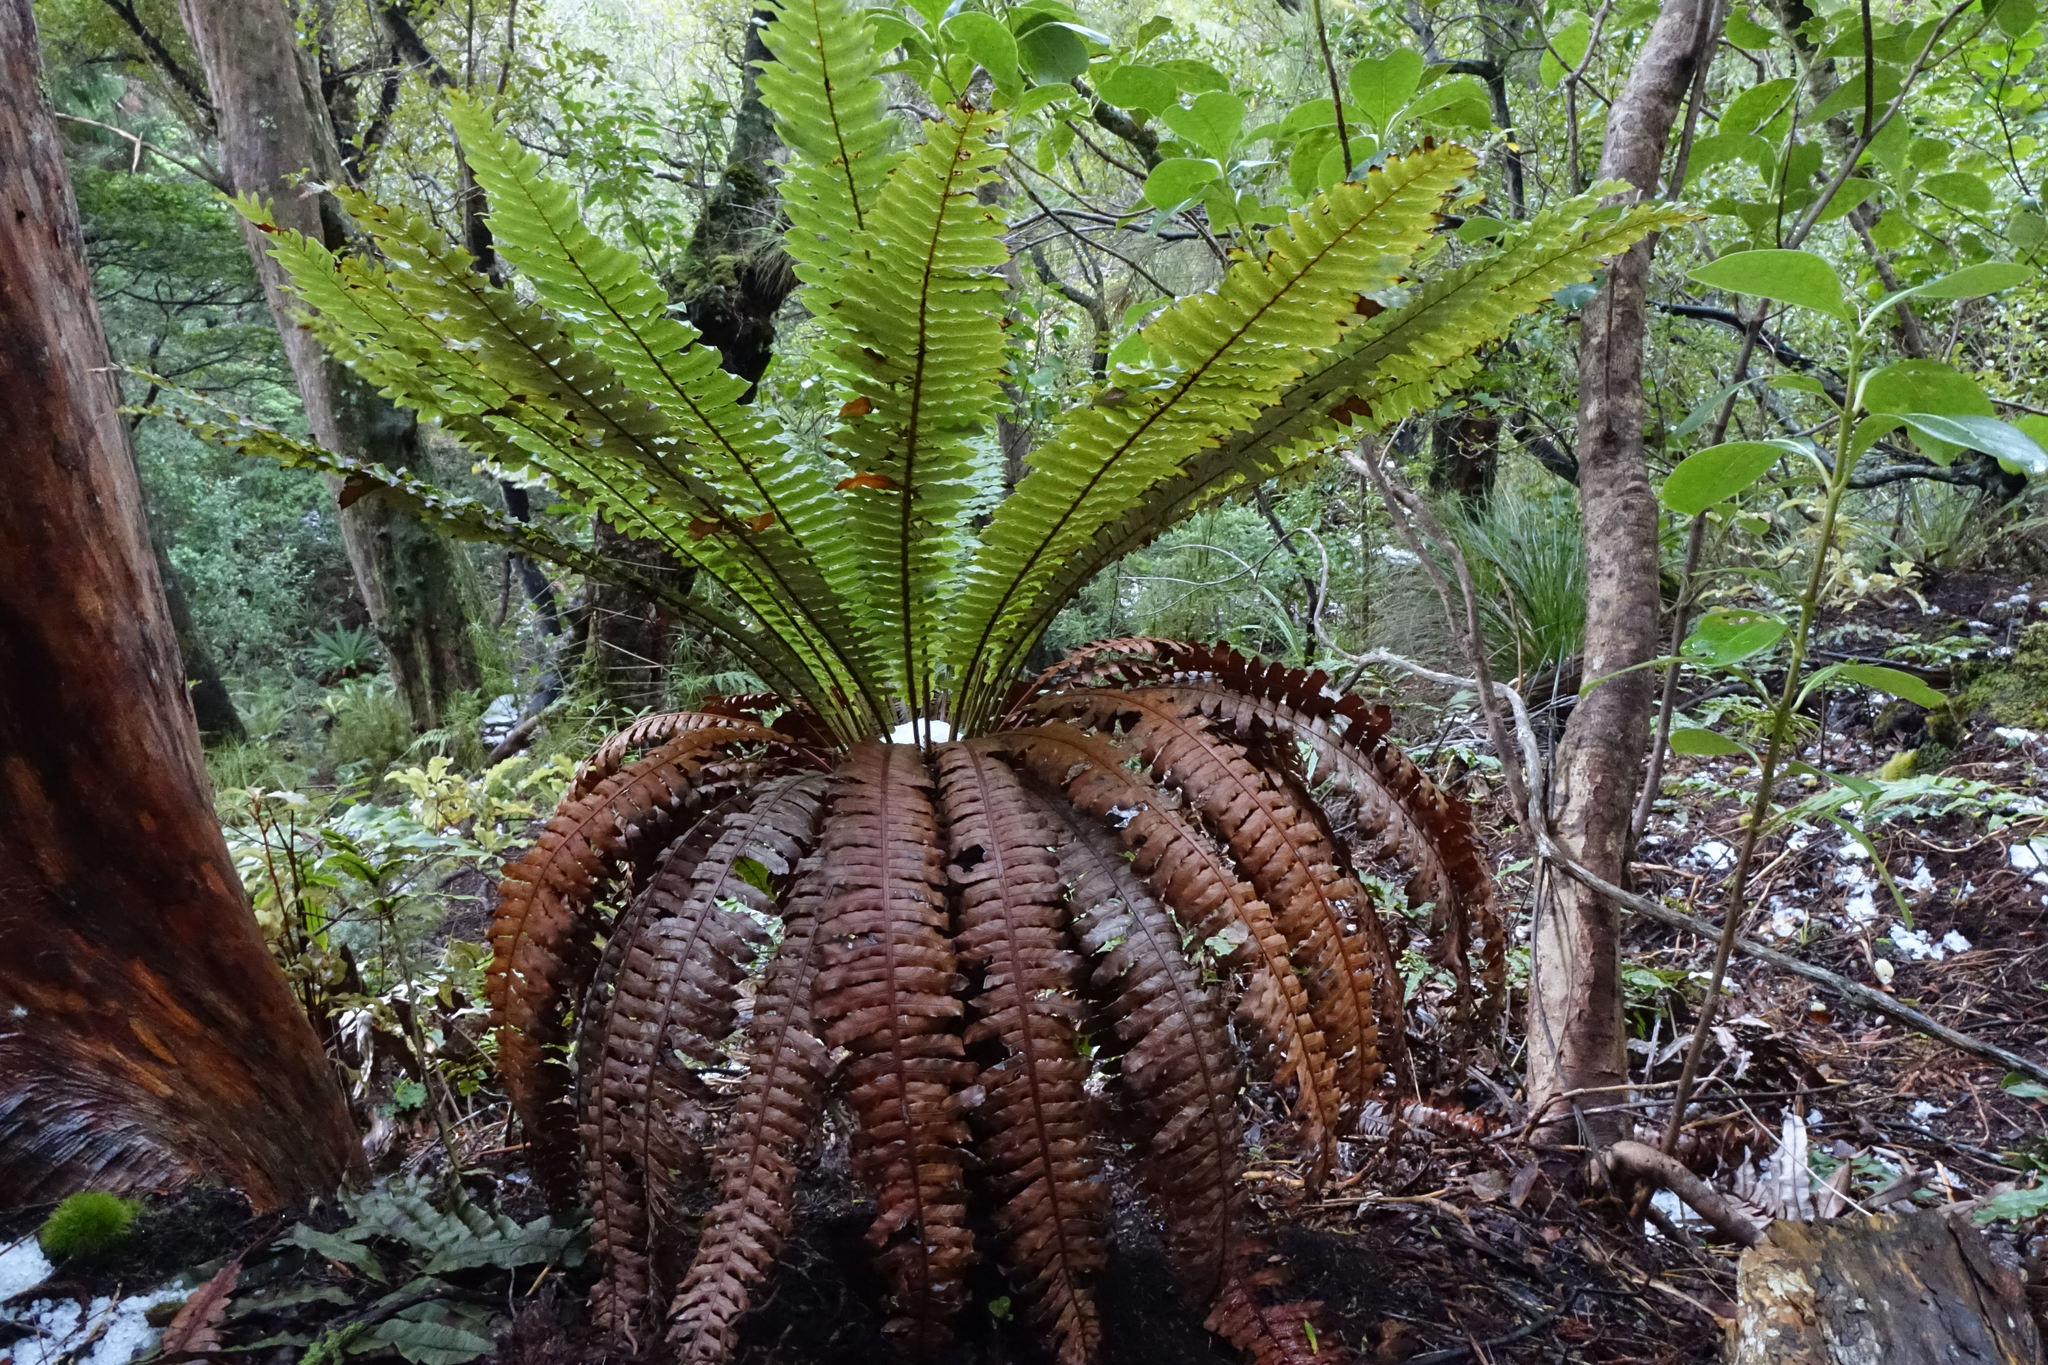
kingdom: Plantae
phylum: Tracheophyta
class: Polypodiopsida
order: Polypodiales
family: Blechnaceae
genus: Lomaria
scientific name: Lomaria discolor
